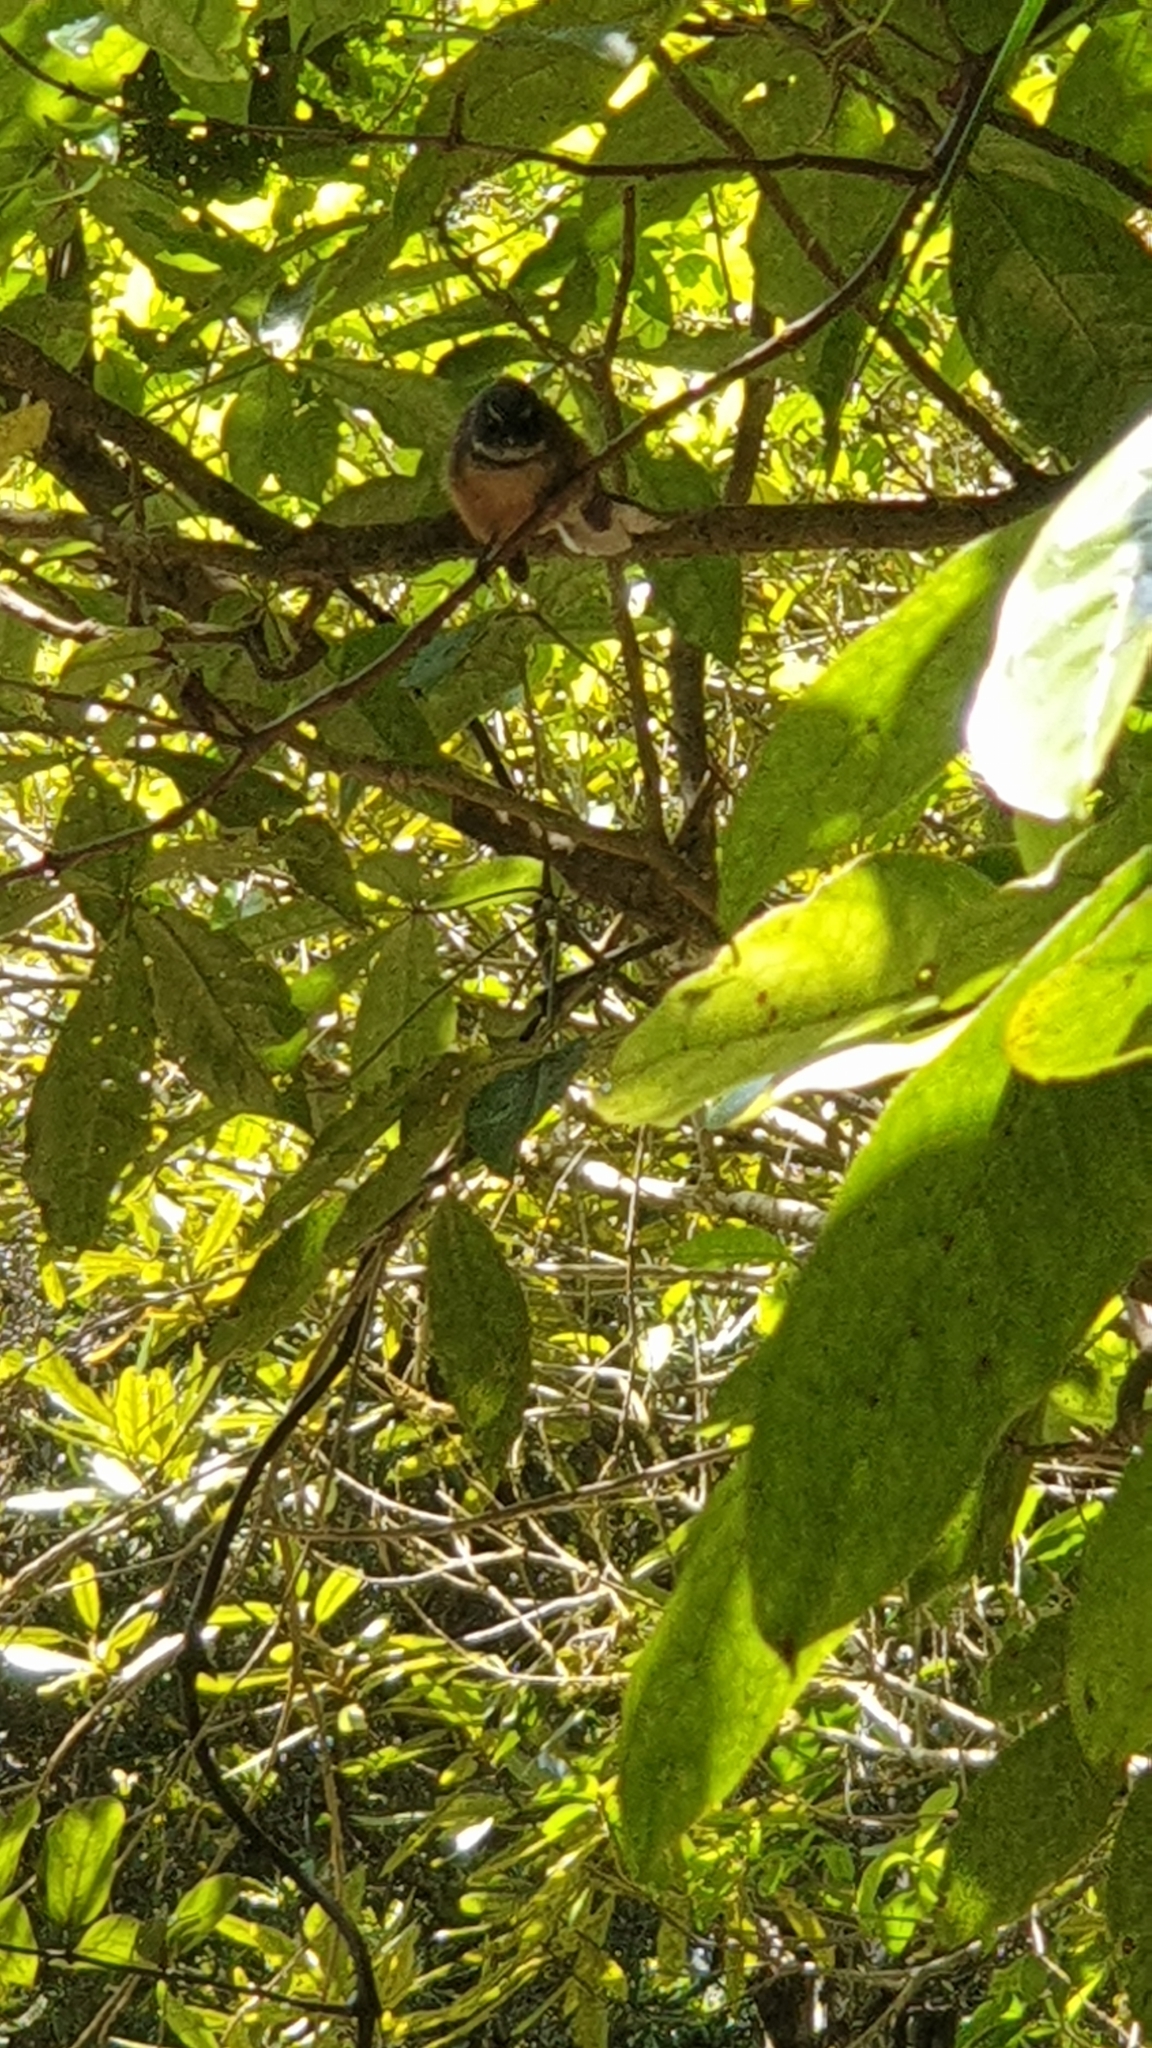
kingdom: Animalia
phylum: Chordata
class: Aves
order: Passeriformes
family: Rhipiduridae
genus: Rhipidura
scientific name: Rhipidura fuliginosa
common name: New zealand fantail
